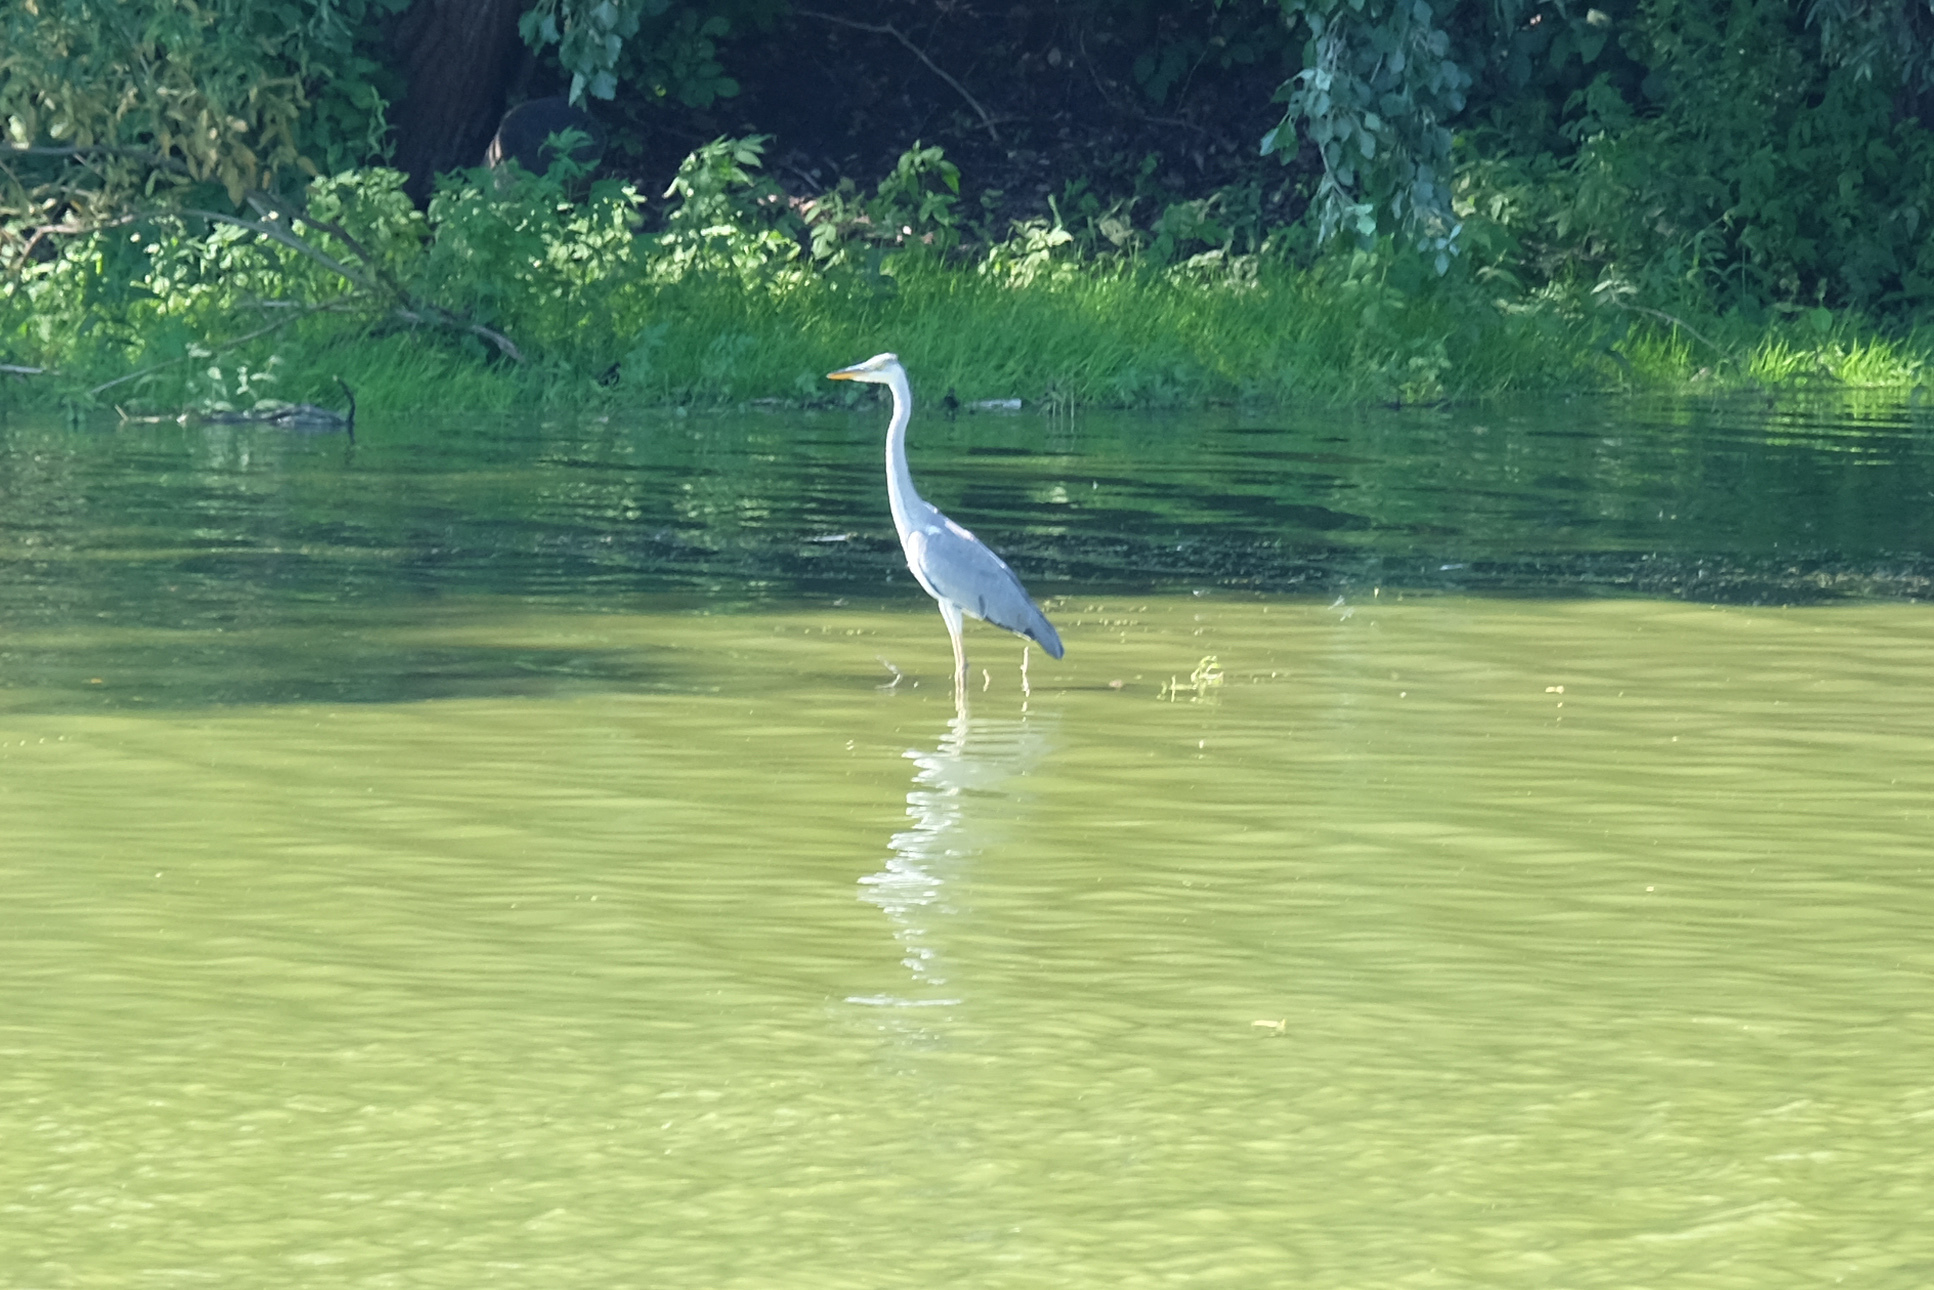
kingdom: Animalia
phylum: Chordata
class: Aves
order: Pelecaniformes
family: Ardeidae
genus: Ardea
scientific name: Ardea cinerea
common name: Grey heron
